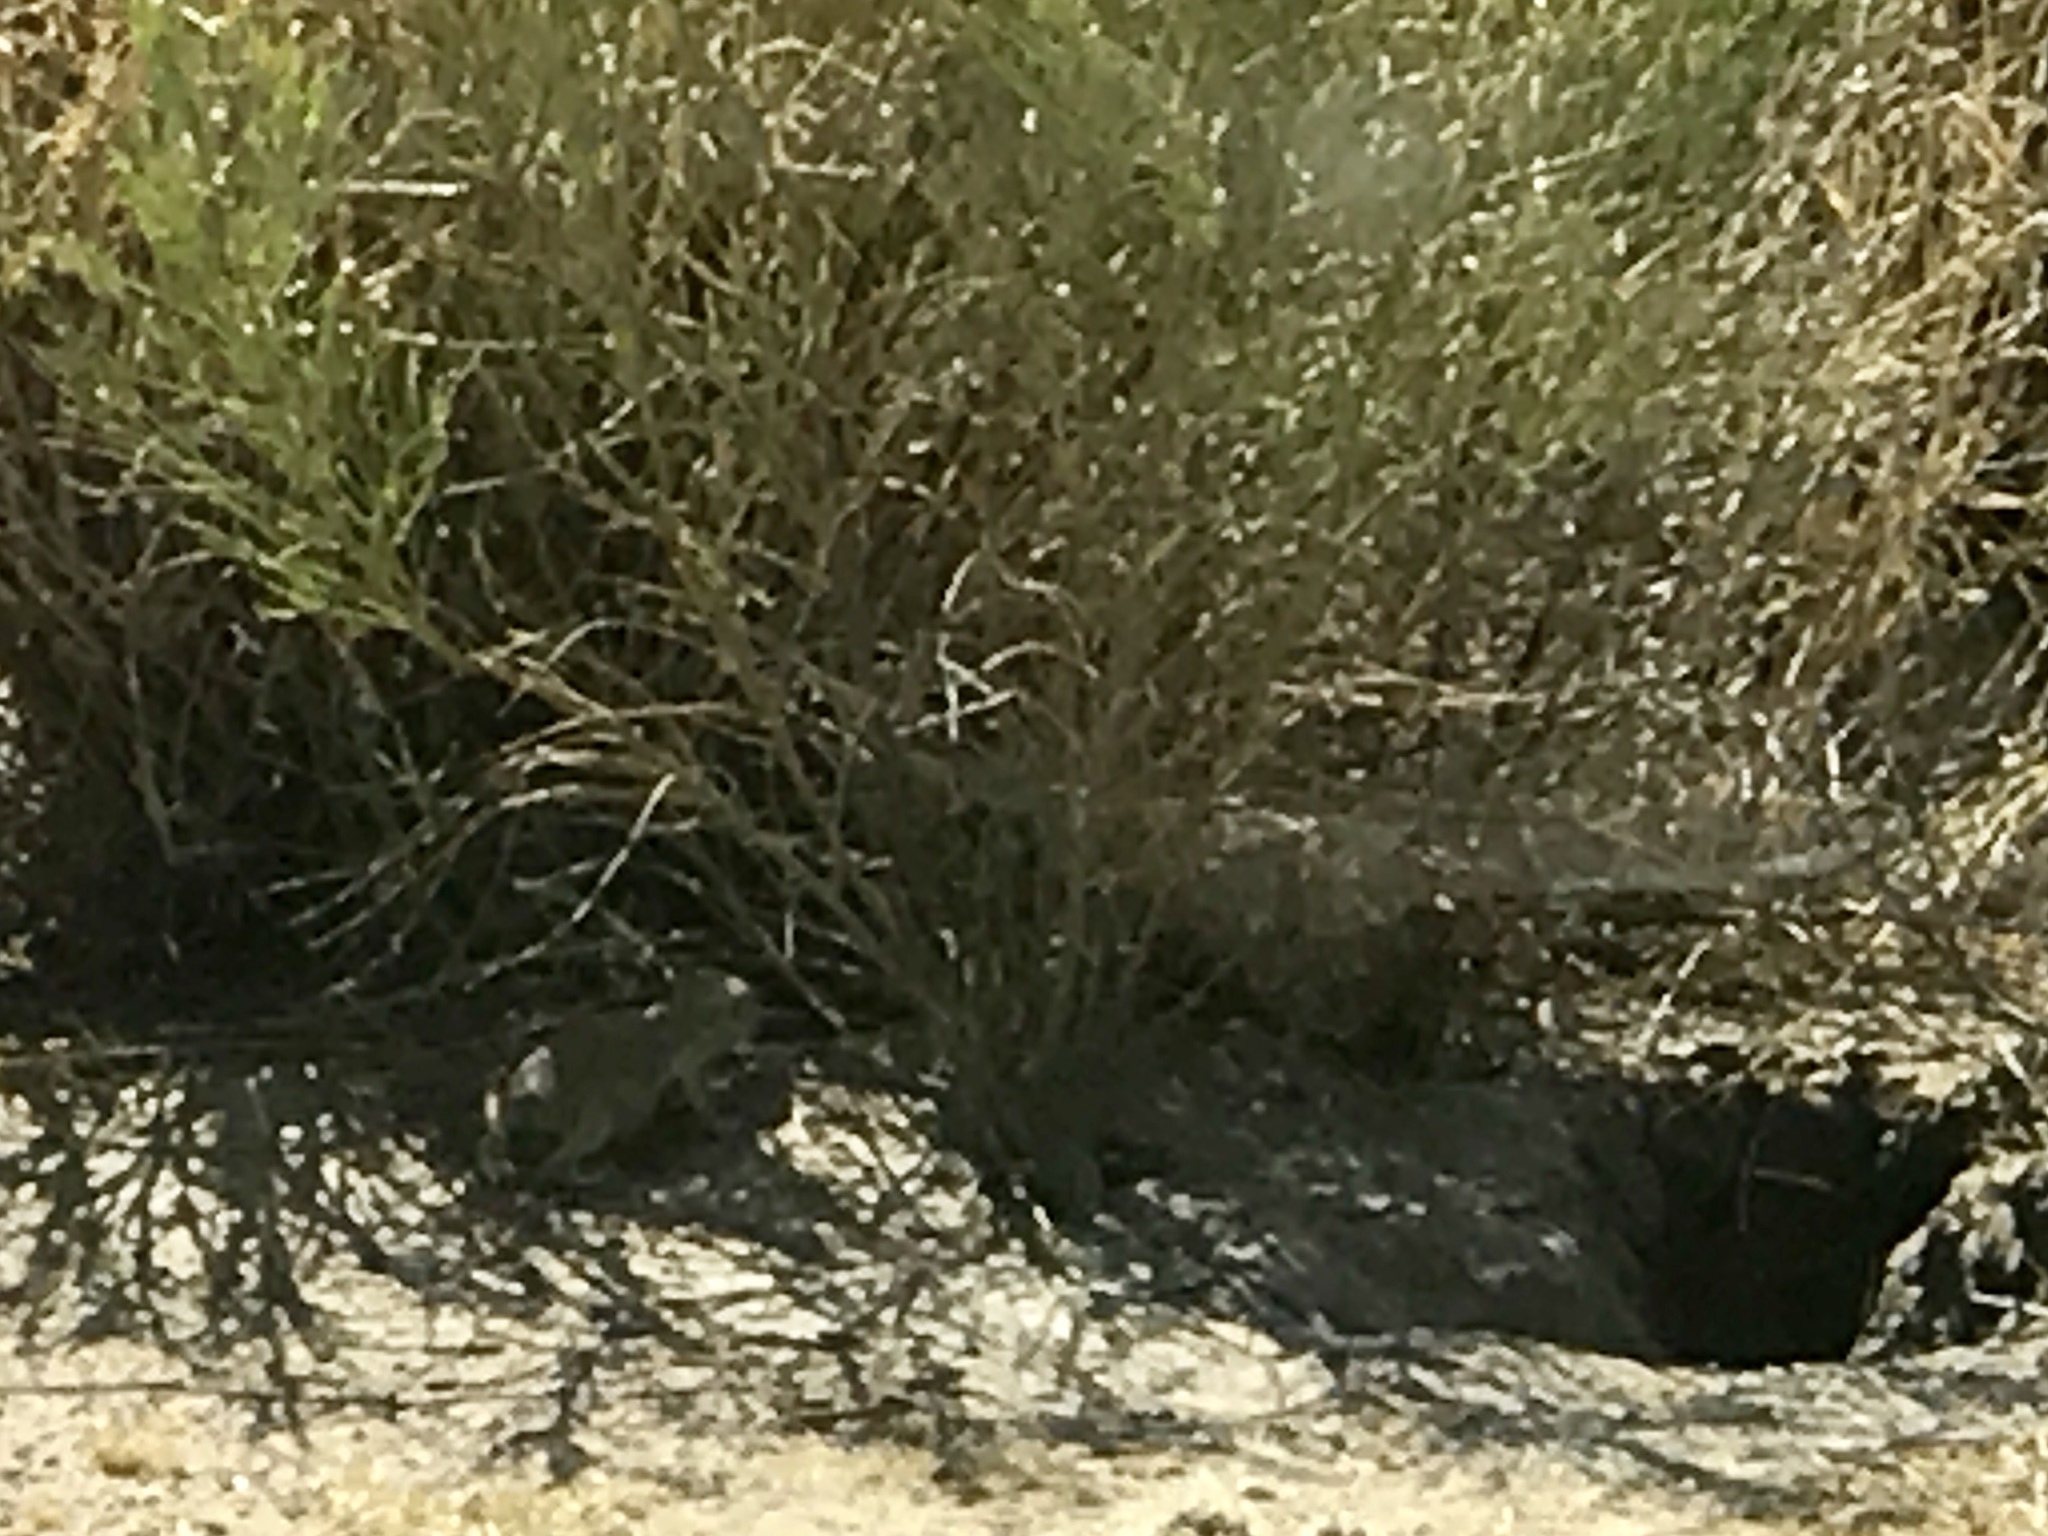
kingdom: Animalia
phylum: Chordata
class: Mammalia
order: Rodentia
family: Sciuridae
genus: Xerospermophilus
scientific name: Xerospermophilus tereticaudus
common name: Round-tailed ground squirrel
